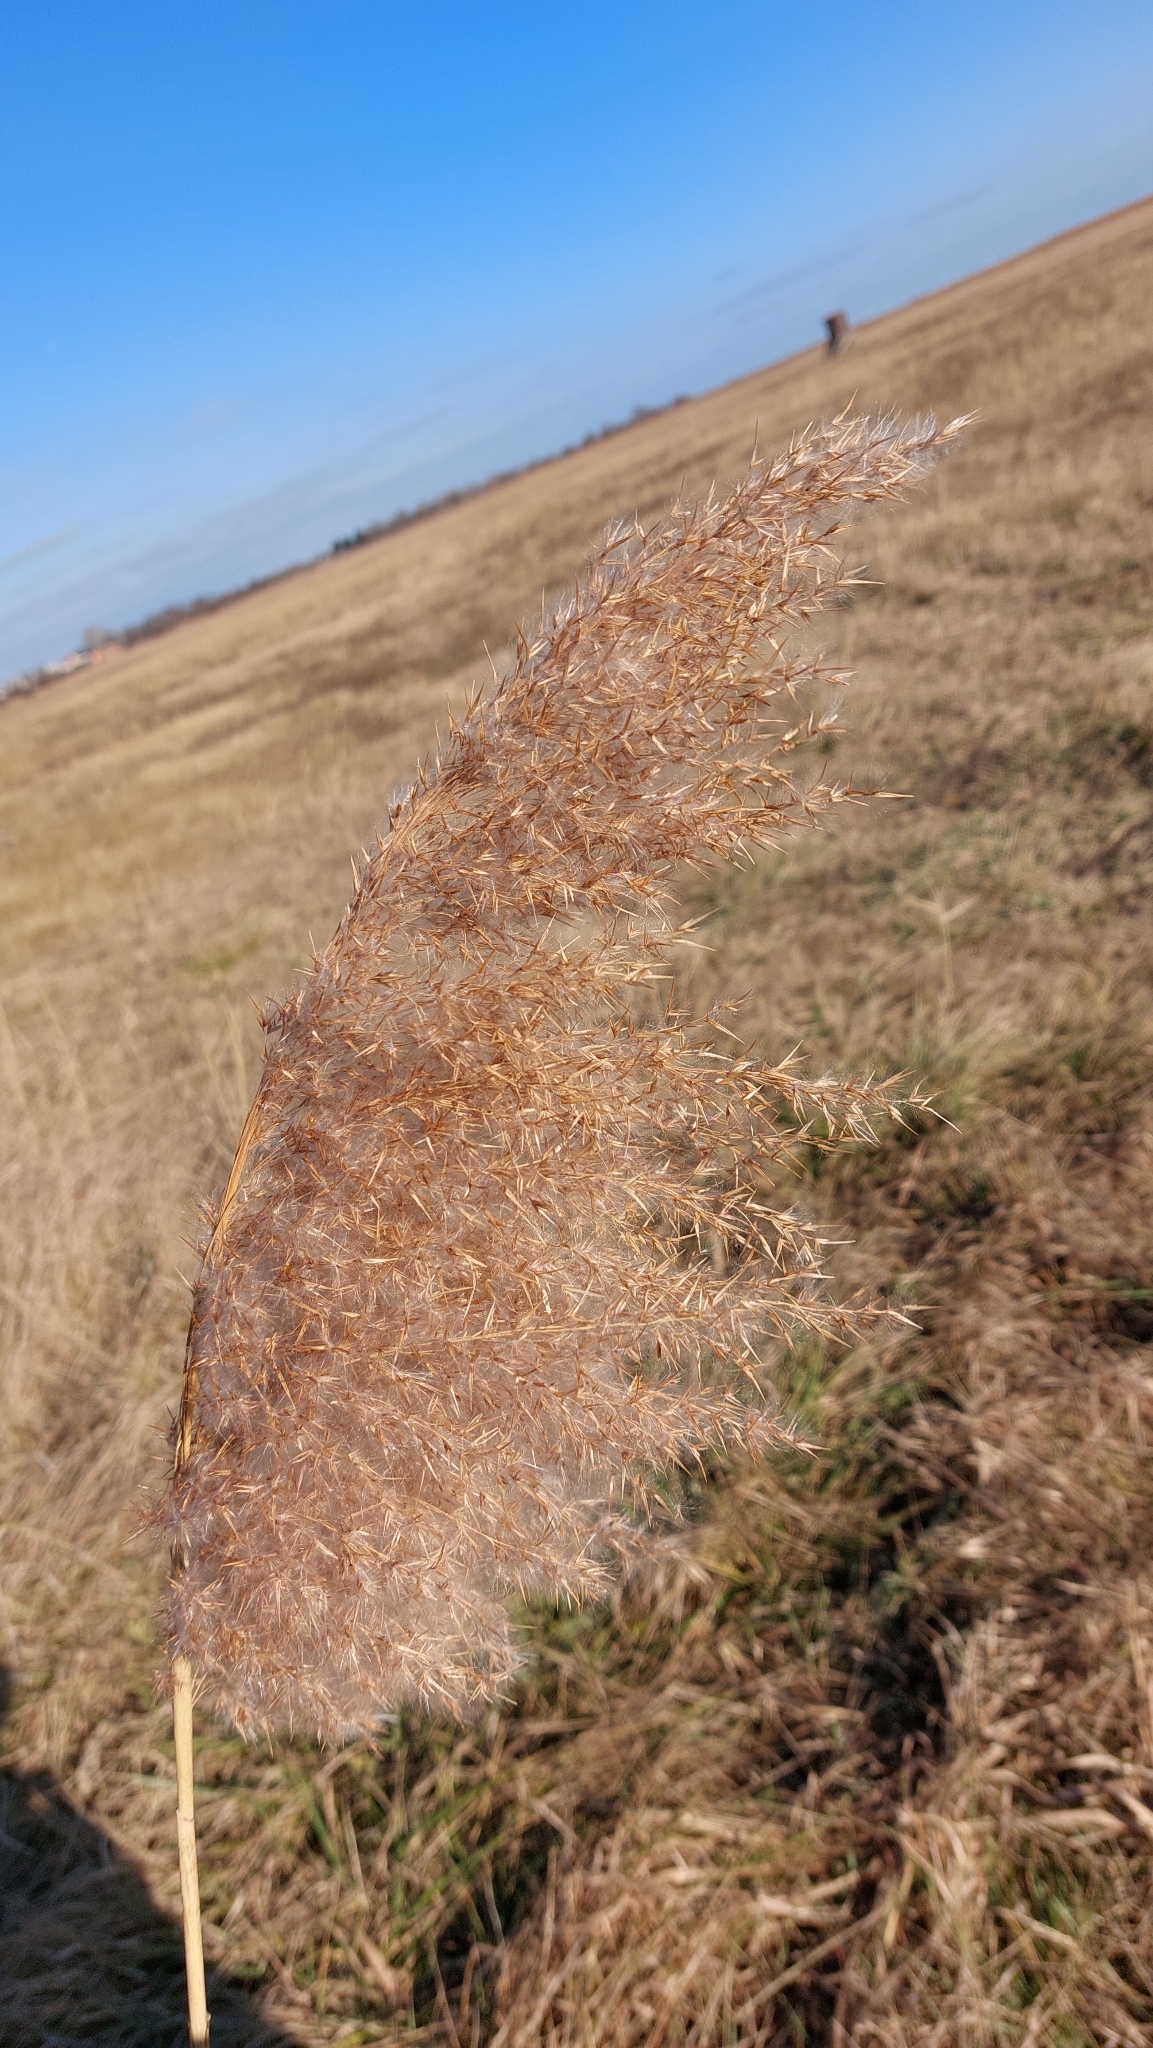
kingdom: Plantae
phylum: Tracheophyta
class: Liliopsida
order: Poales
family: Poaceae
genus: Phragmites
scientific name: Phragmites australis
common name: Common reed
